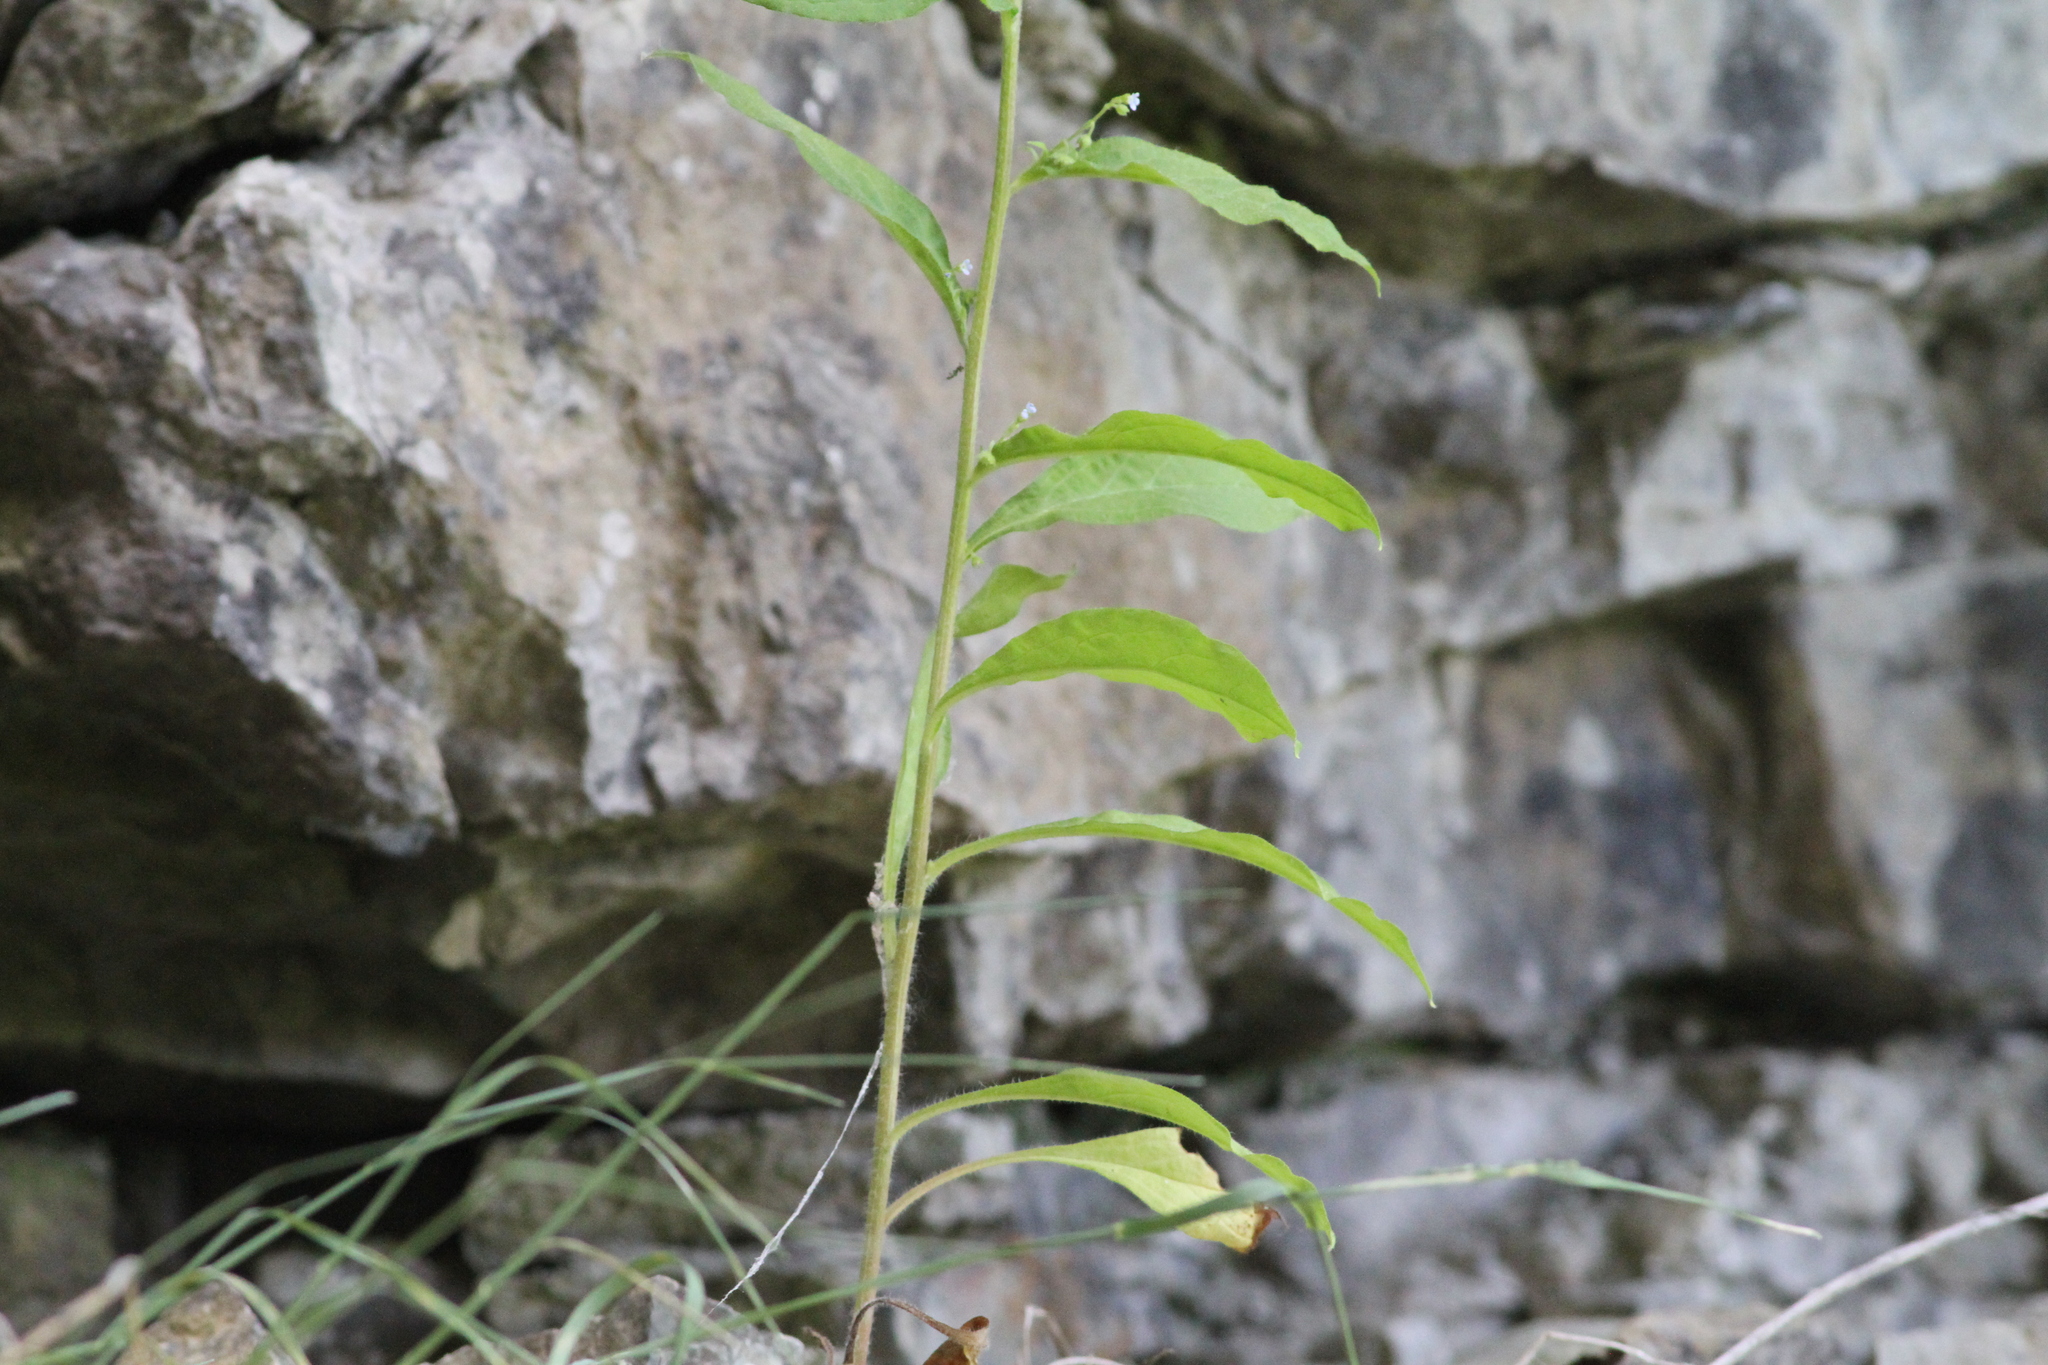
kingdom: Plantae
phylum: Tracheophyta
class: Magnoliopsida
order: Boraginales
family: Boraginaceae
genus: Hackelia
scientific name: Hackelia virginiana
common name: Beggar's-lice
